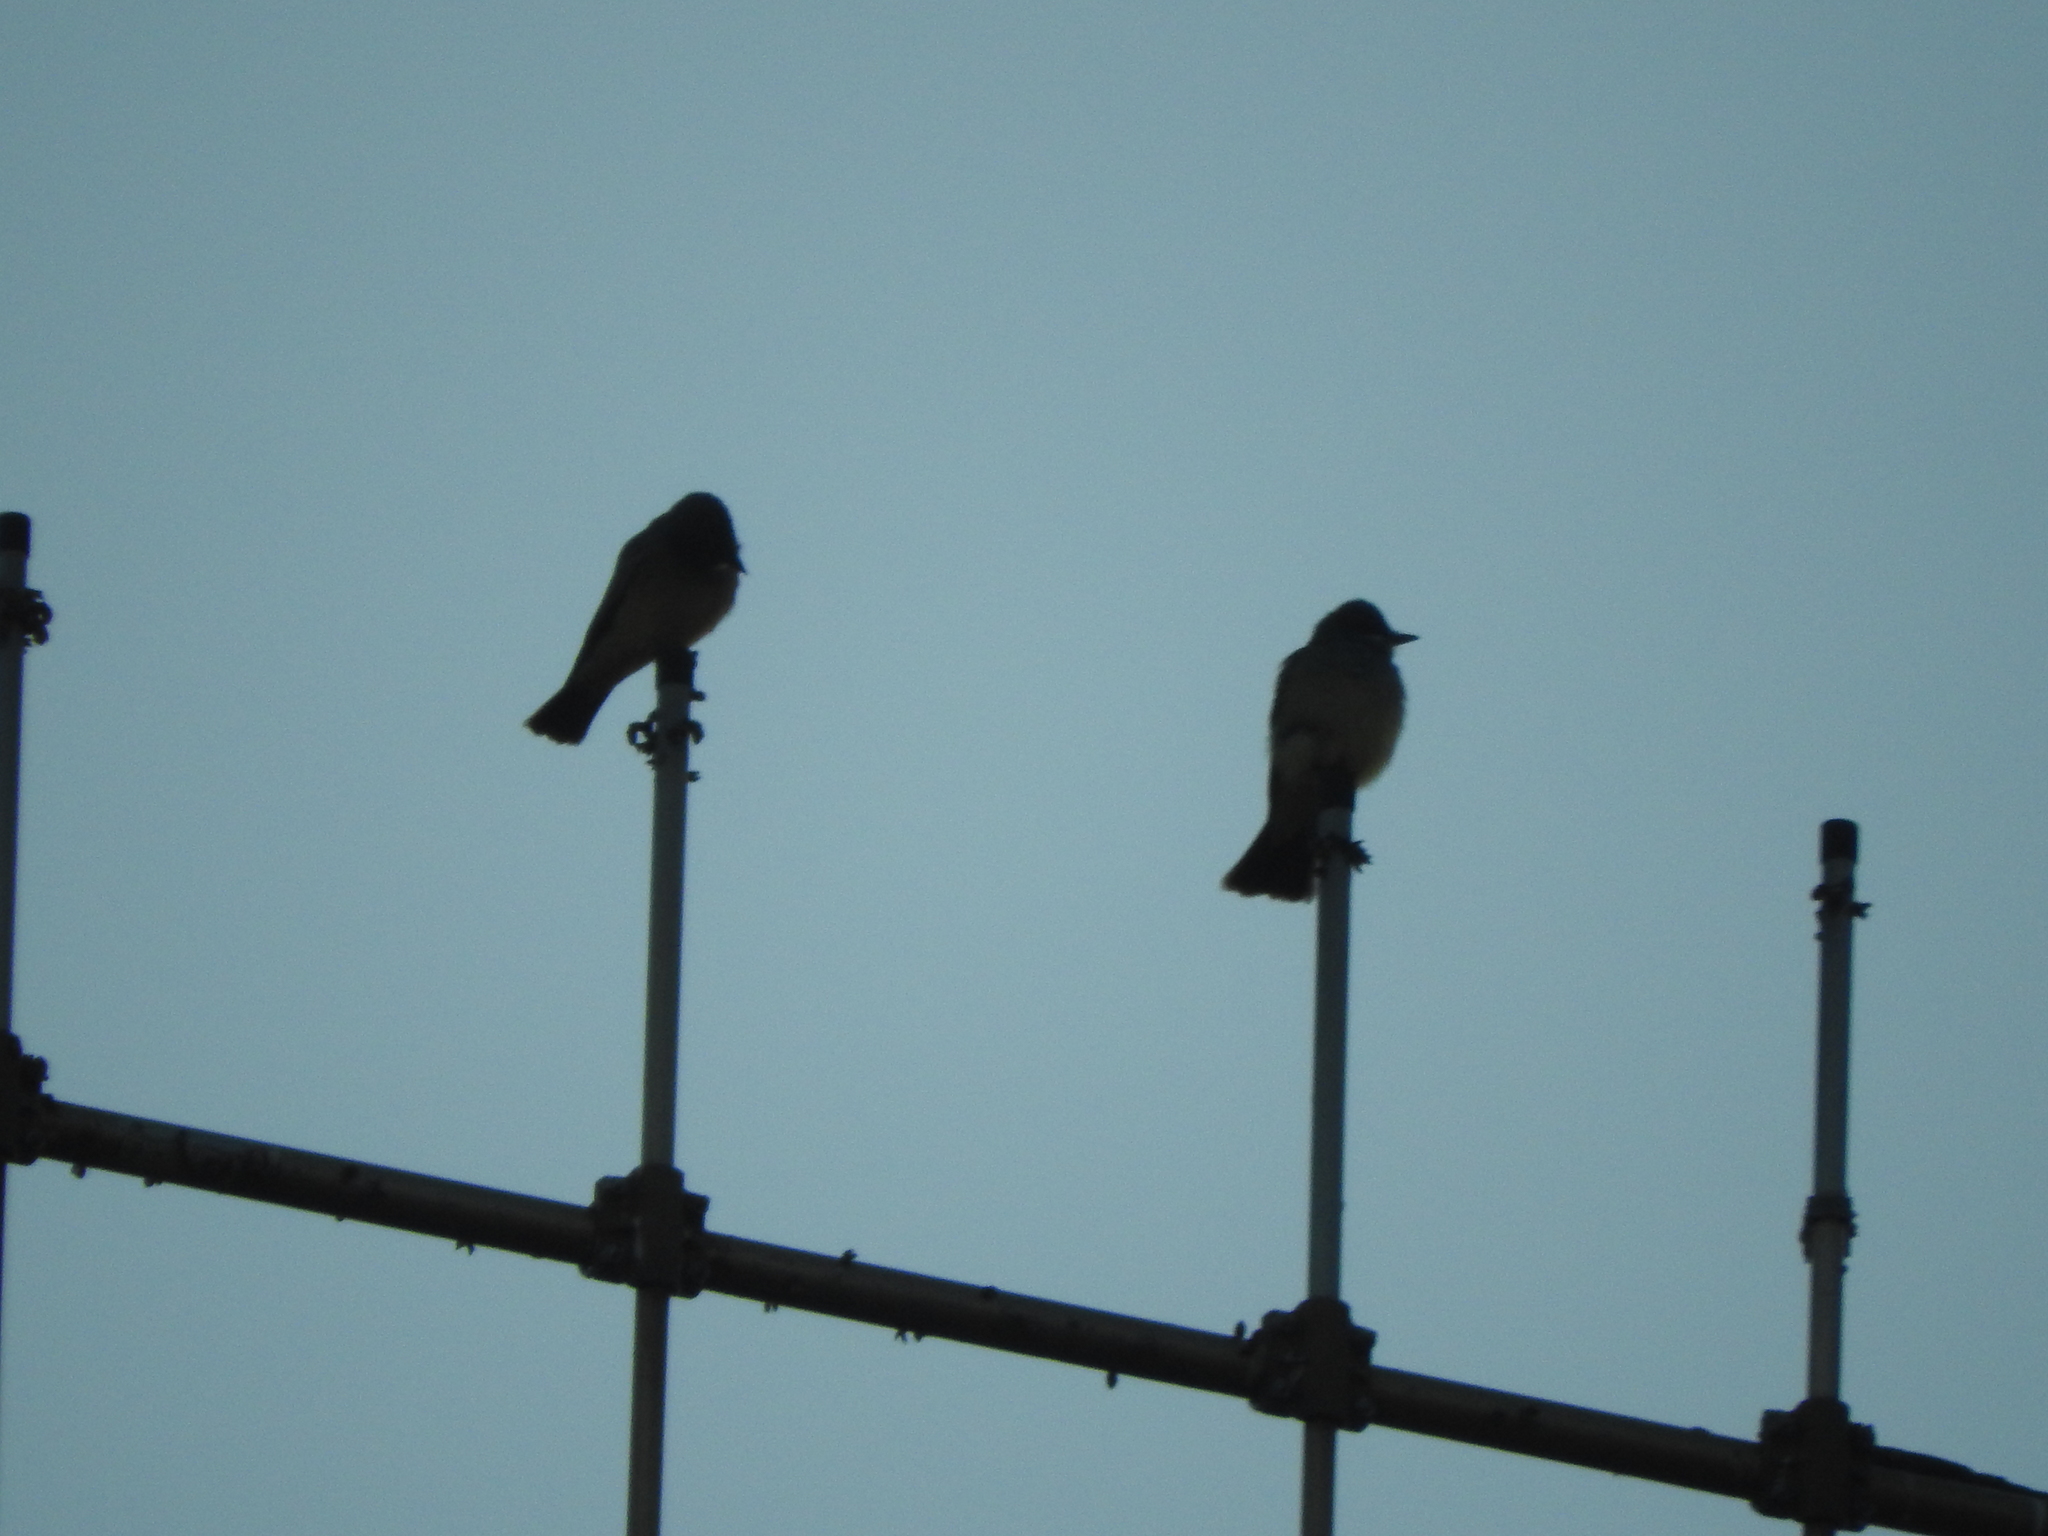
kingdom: Animalia
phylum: Chordata
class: Aves
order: Passeriformes
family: Tyrannidae
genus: Tyrannus
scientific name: Tyrannus vociferans
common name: Cassin's kingbird
